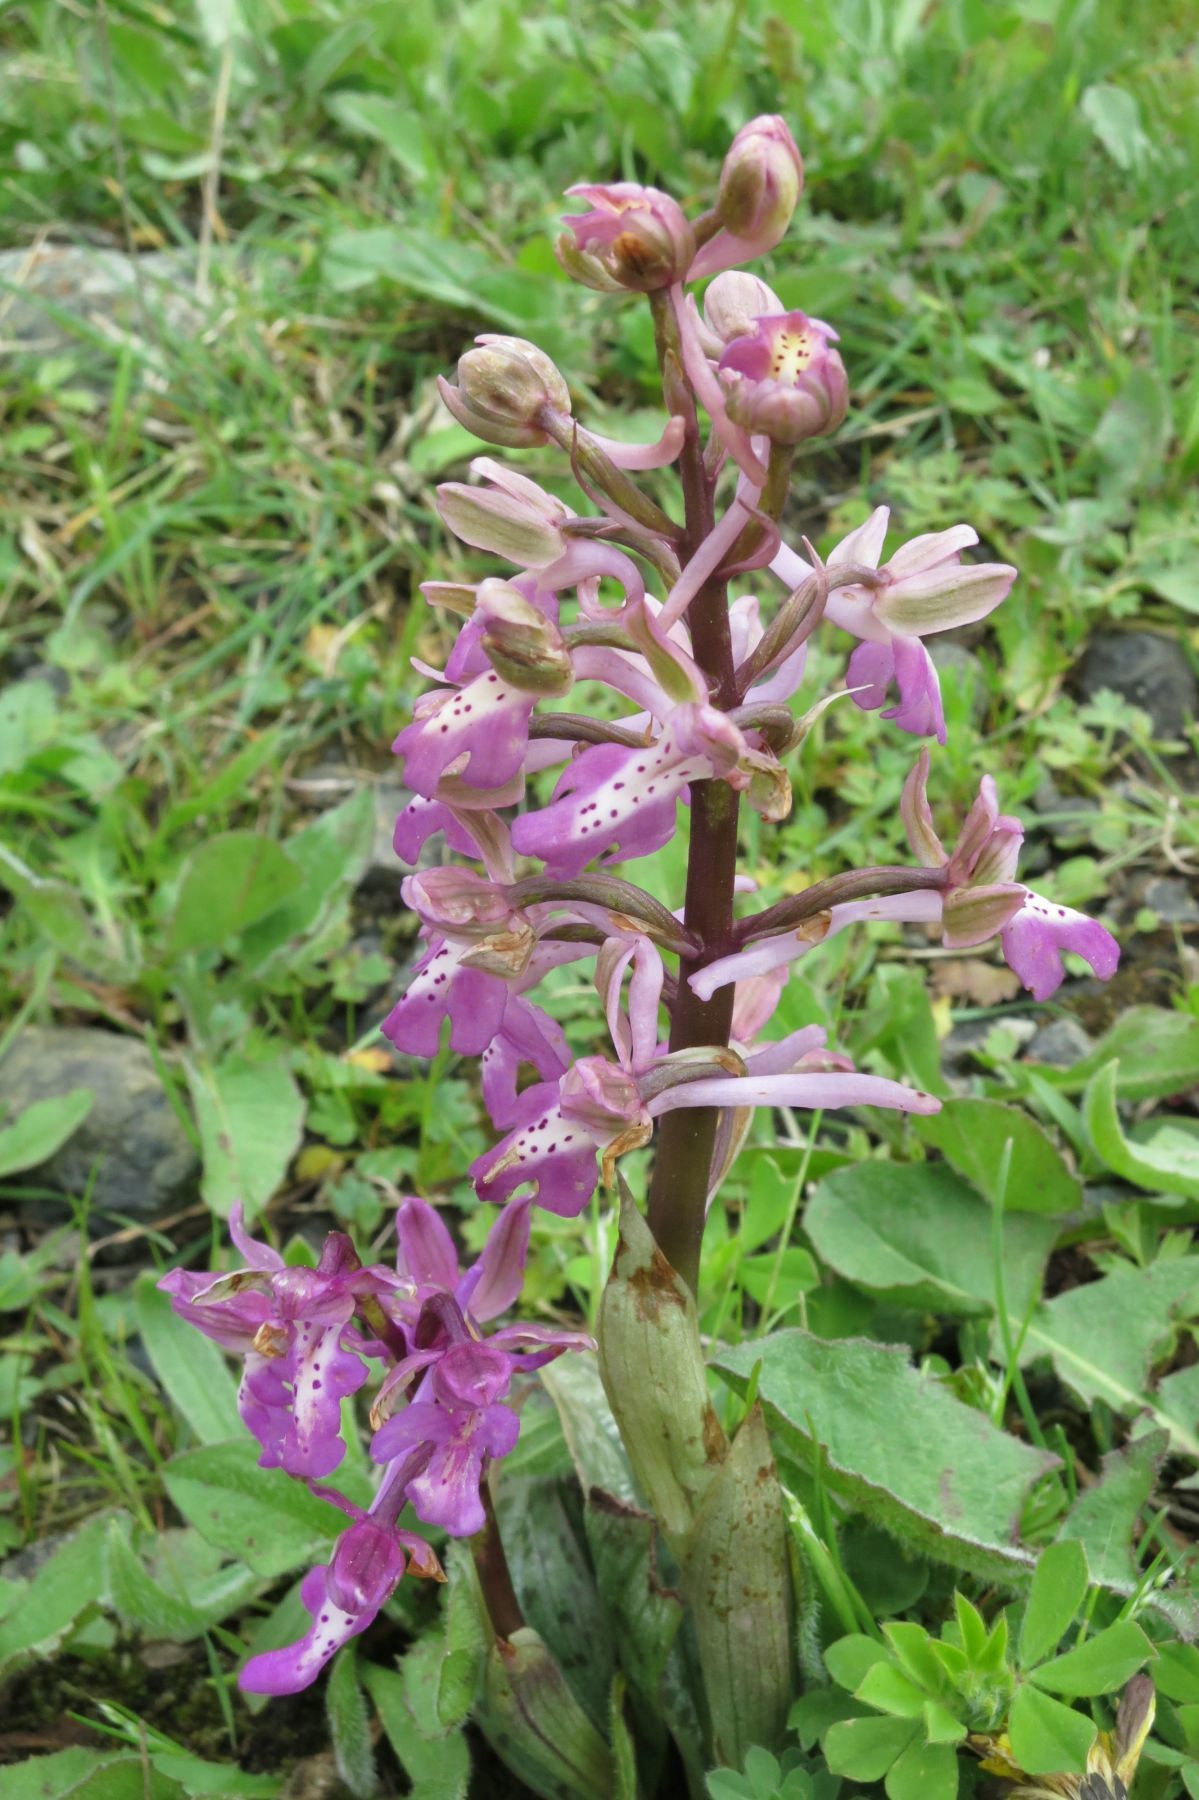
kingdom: Plantae
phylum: Tracheophyta
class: Liliopsida
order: Asparagales
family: Orchidaceae
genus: Orchis
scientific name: Orchis sitiaca
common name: Cretan orchid
